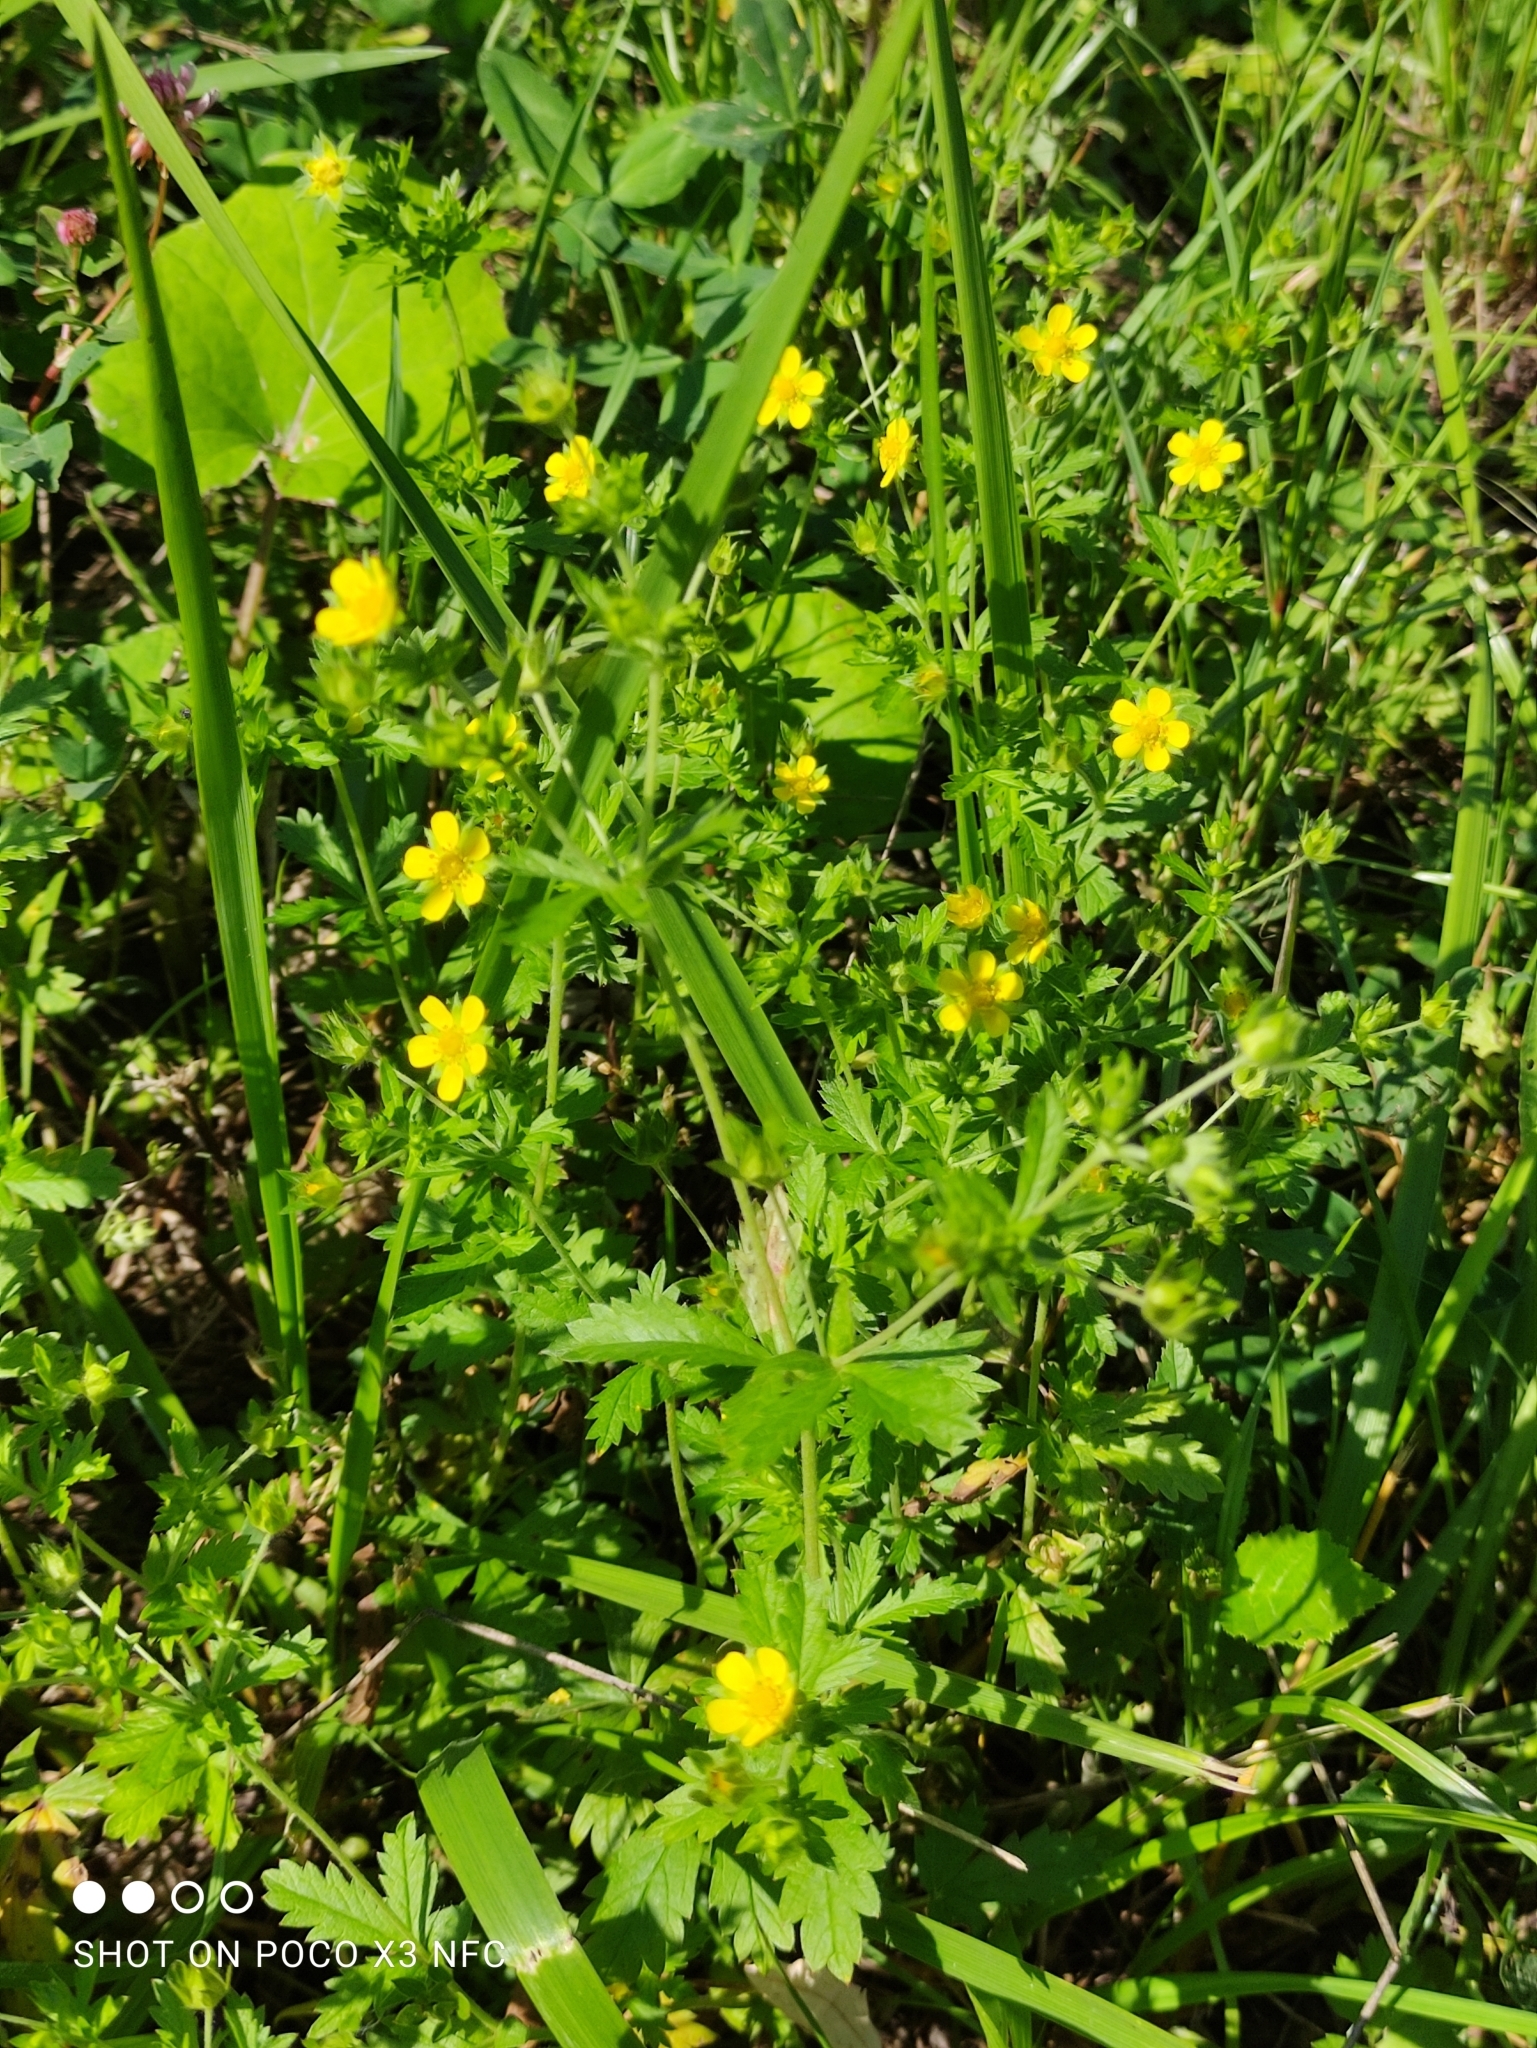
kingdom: Plantae
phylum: Tracheophyta
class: Magnoliopsida
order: Rosales
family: Rosaceae
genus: Potentilla
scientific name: Potentilla intermedia
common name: Downy cinquefoil
